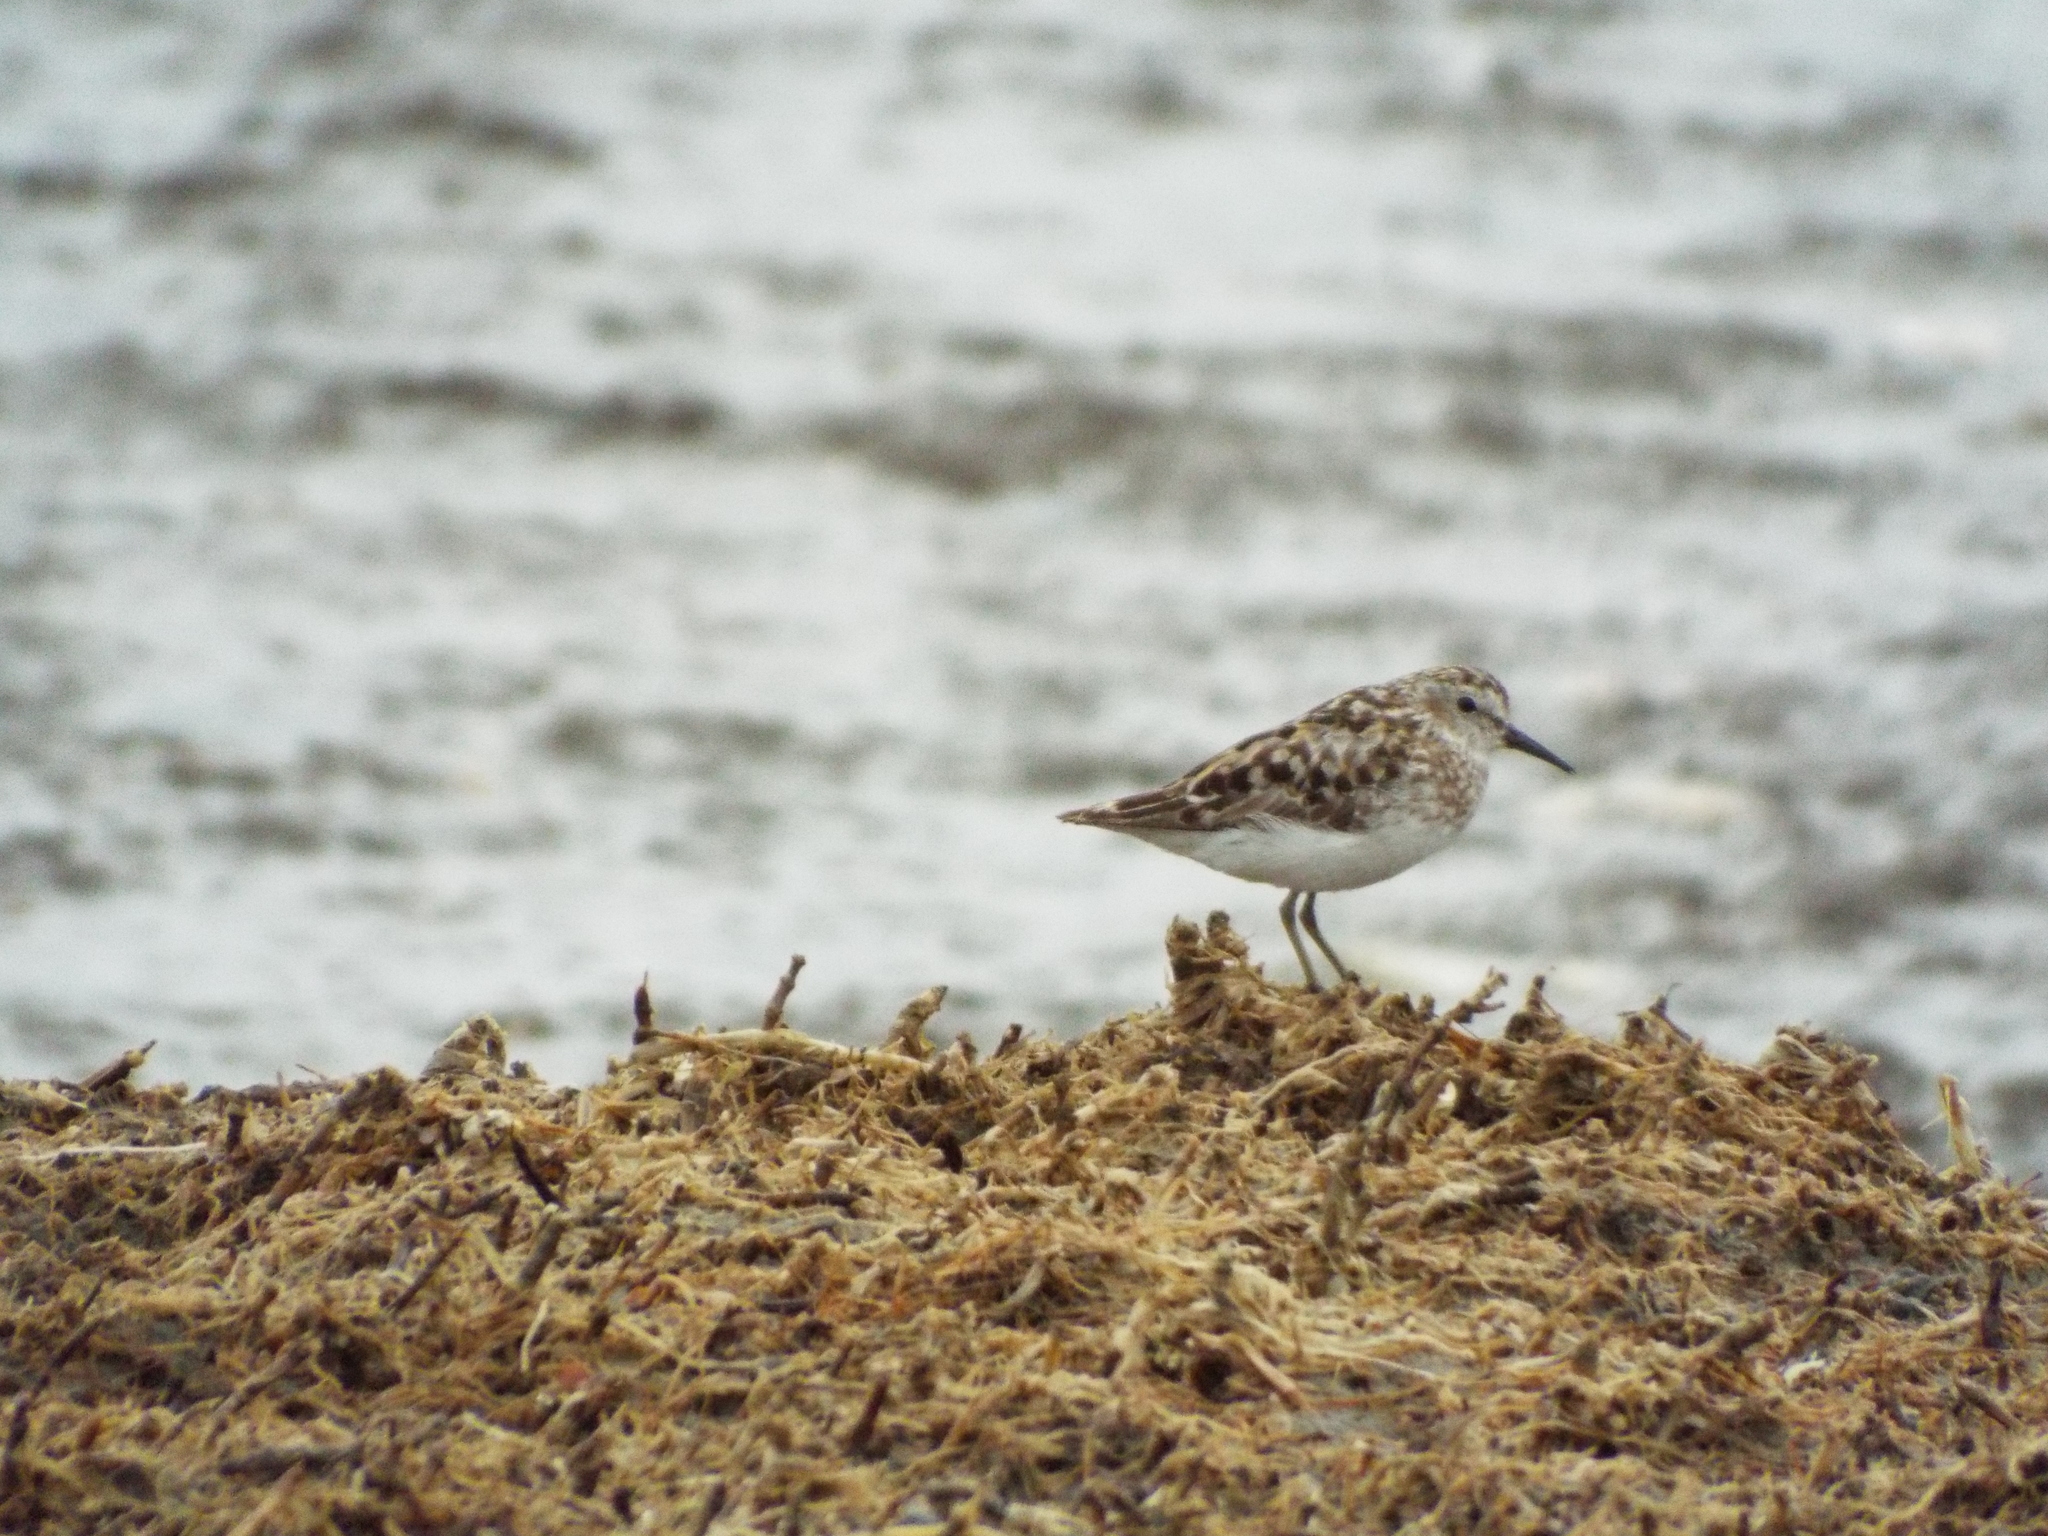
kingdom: Animalia
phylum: Chordata
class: Aves
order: Charadriiformes
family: Scolopacidae
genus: Calidris
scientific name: Calidris minutilla
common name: Least sandpiper
